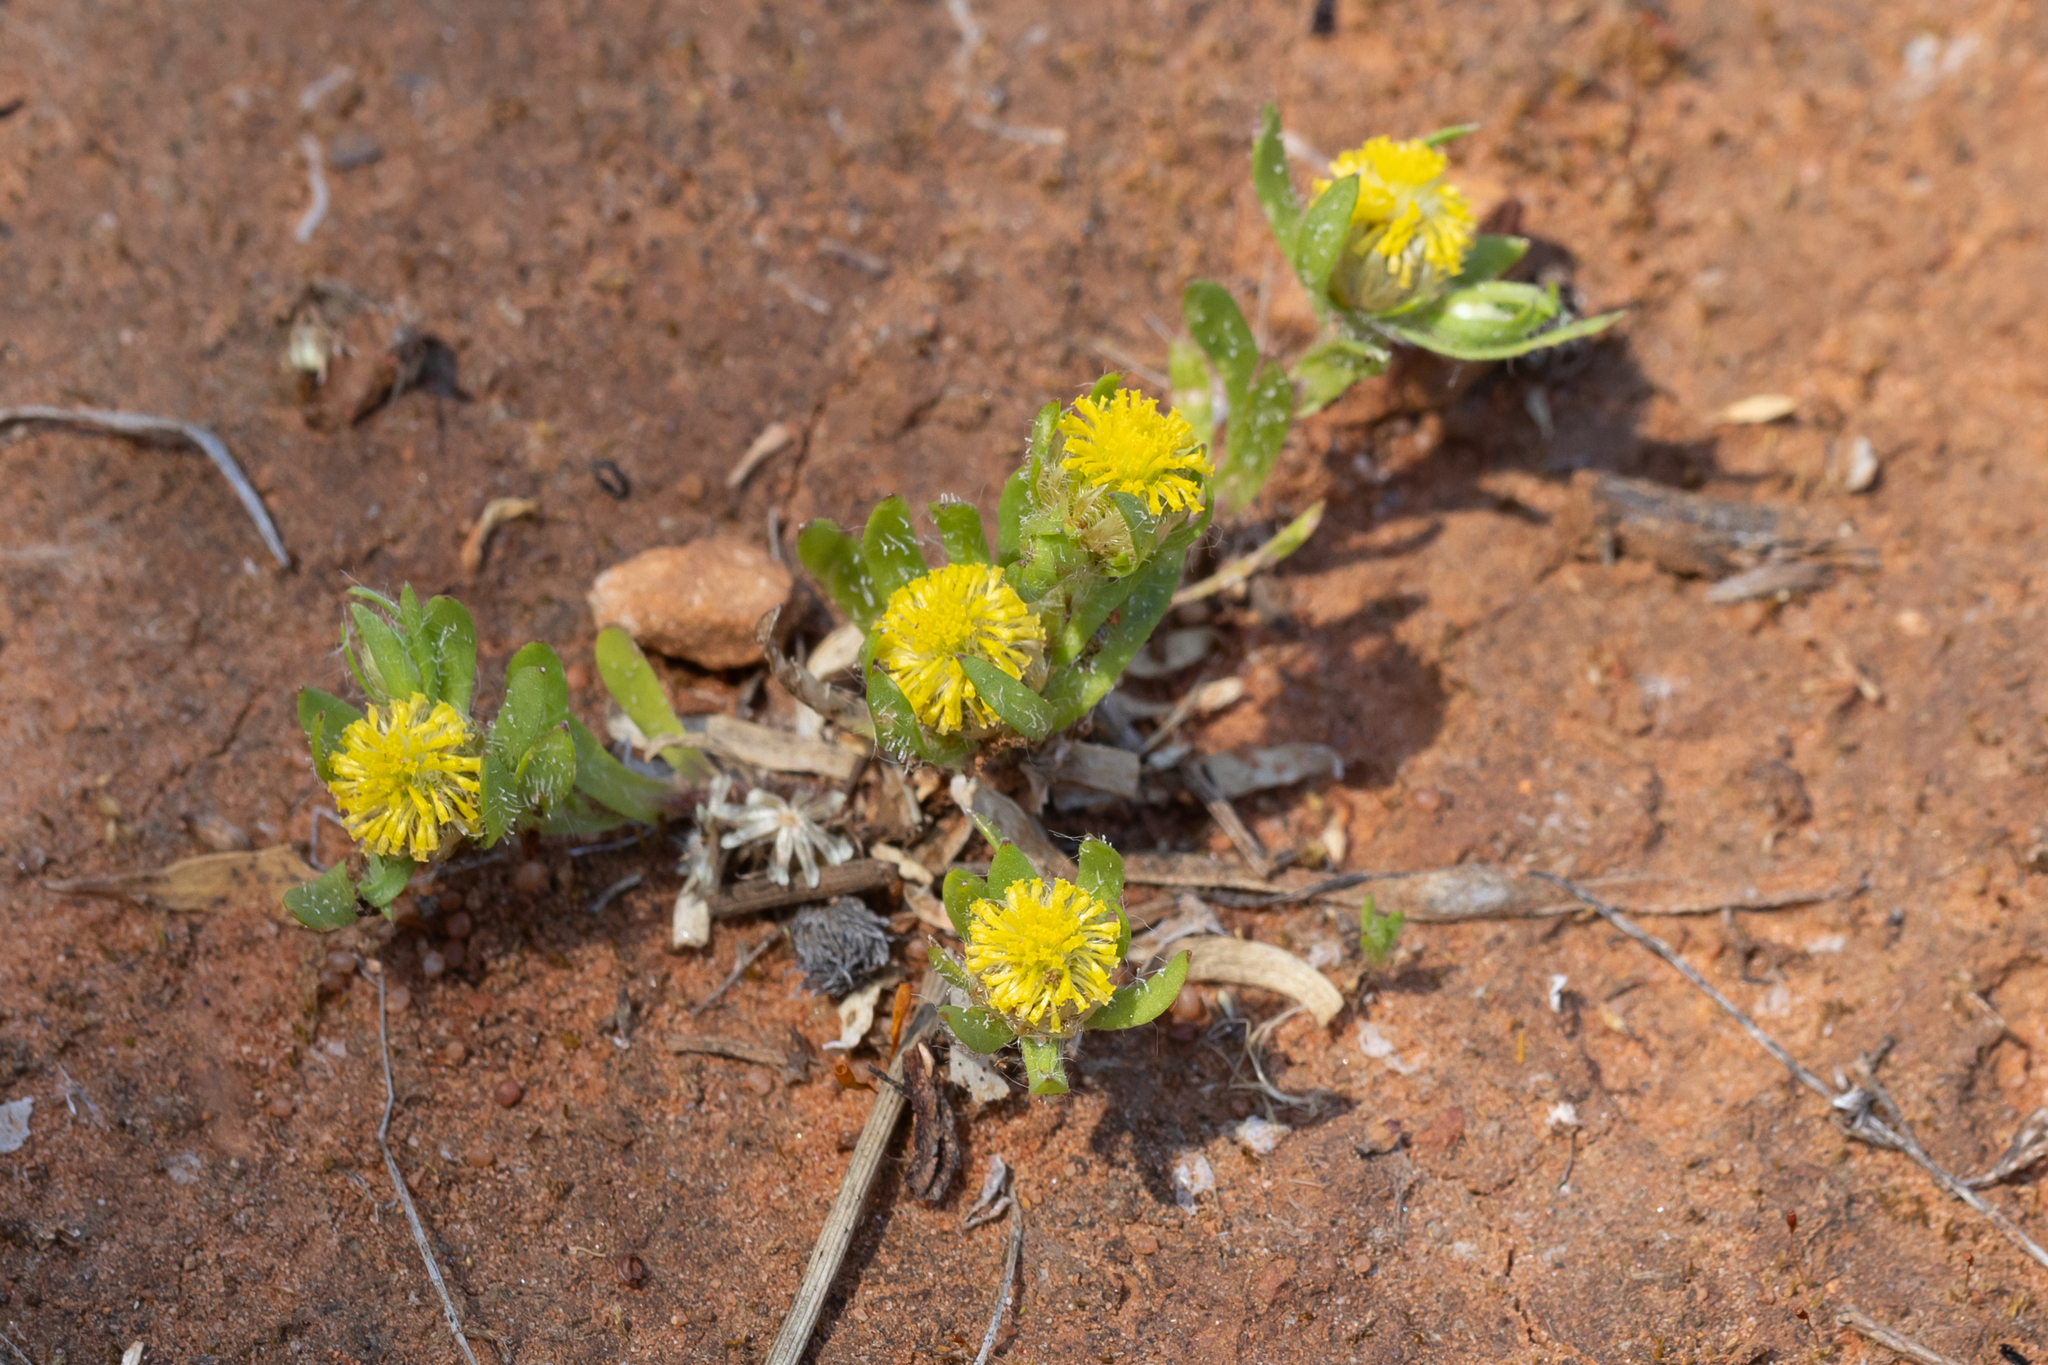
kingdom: Plantae
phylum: Tracheophyta
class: Magnoliopsida
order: Asterales
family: Asteraceae
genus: Triptilodiscus
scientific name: Triptilodiscus pygmaeus
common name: Common sunray
